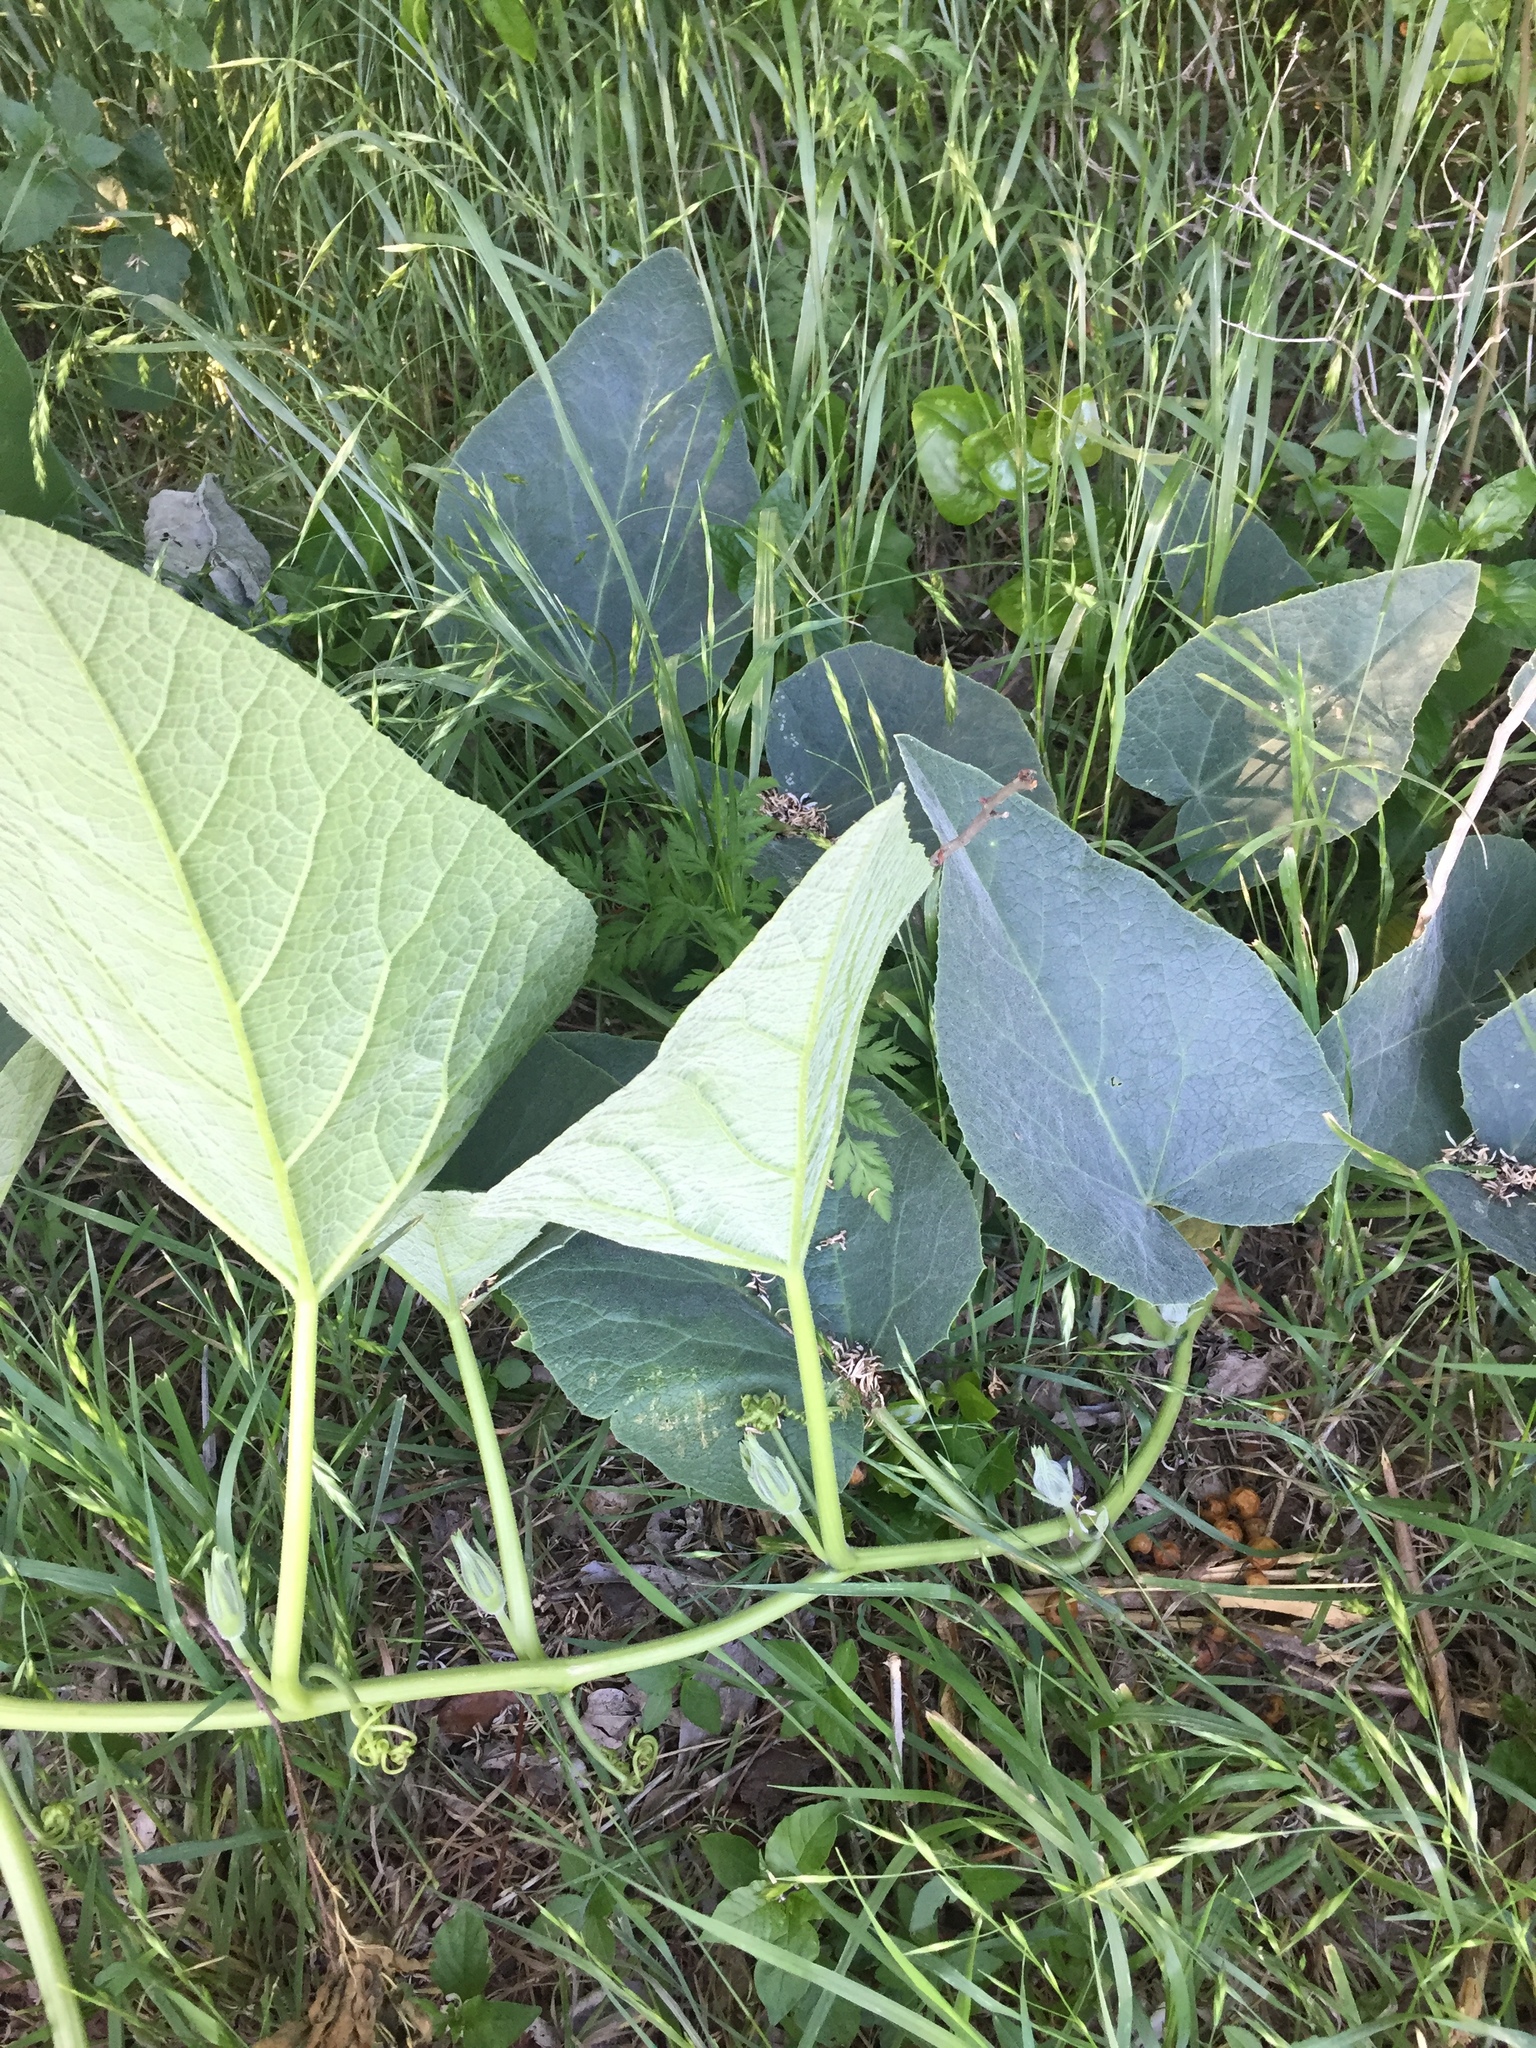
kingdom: Plantae
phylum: Tracheophyta
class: Magnoliopsida
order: Cucurbitales
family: Cucurbitaceae
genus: Cucurbita
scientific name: Cucurbita foetidissima
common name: Buffalo gourd
